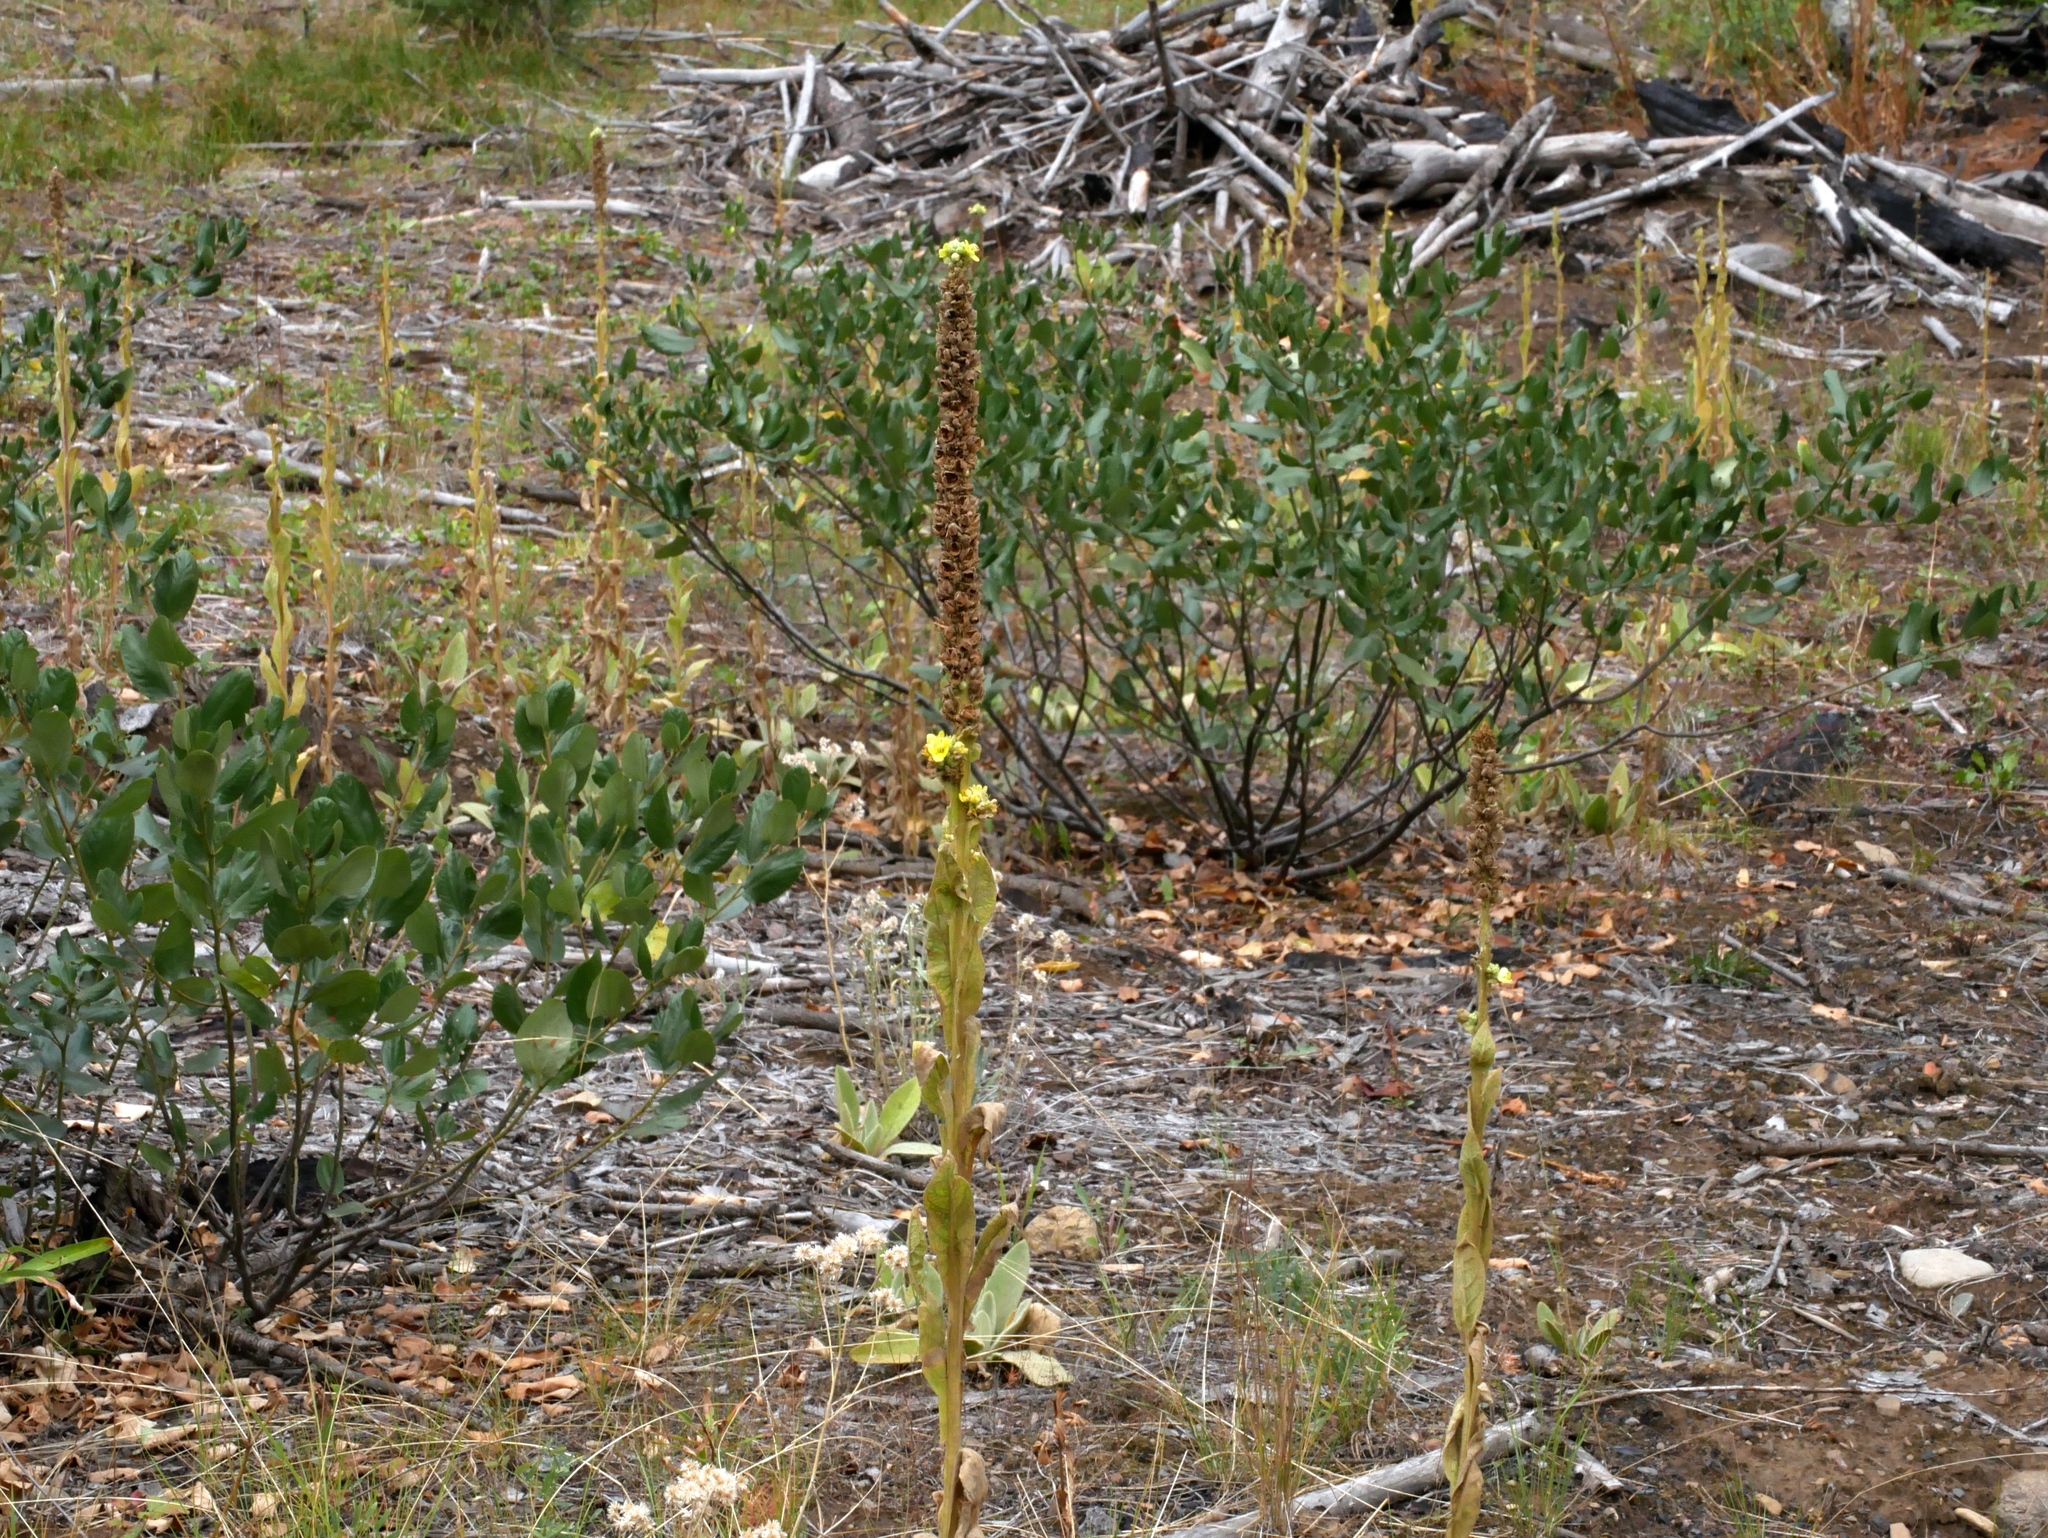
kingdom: Plantae
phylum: Tracheophyta
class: Magnoliopsida
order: Lamiales
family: Scrophulariaceae
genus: Verbascum
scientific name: Verbascum thapsus
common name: Common mullein
